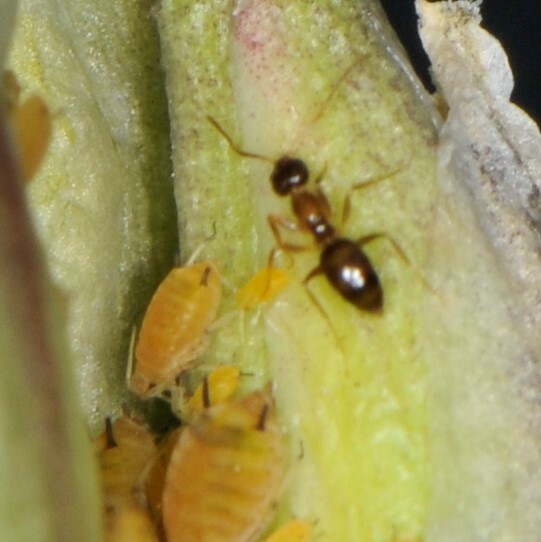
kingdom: Animalia
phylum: Arthropoda
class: Insecta
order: Hymenoptera
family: Formicidae
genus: Nylanderia
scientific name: Nylanderia
